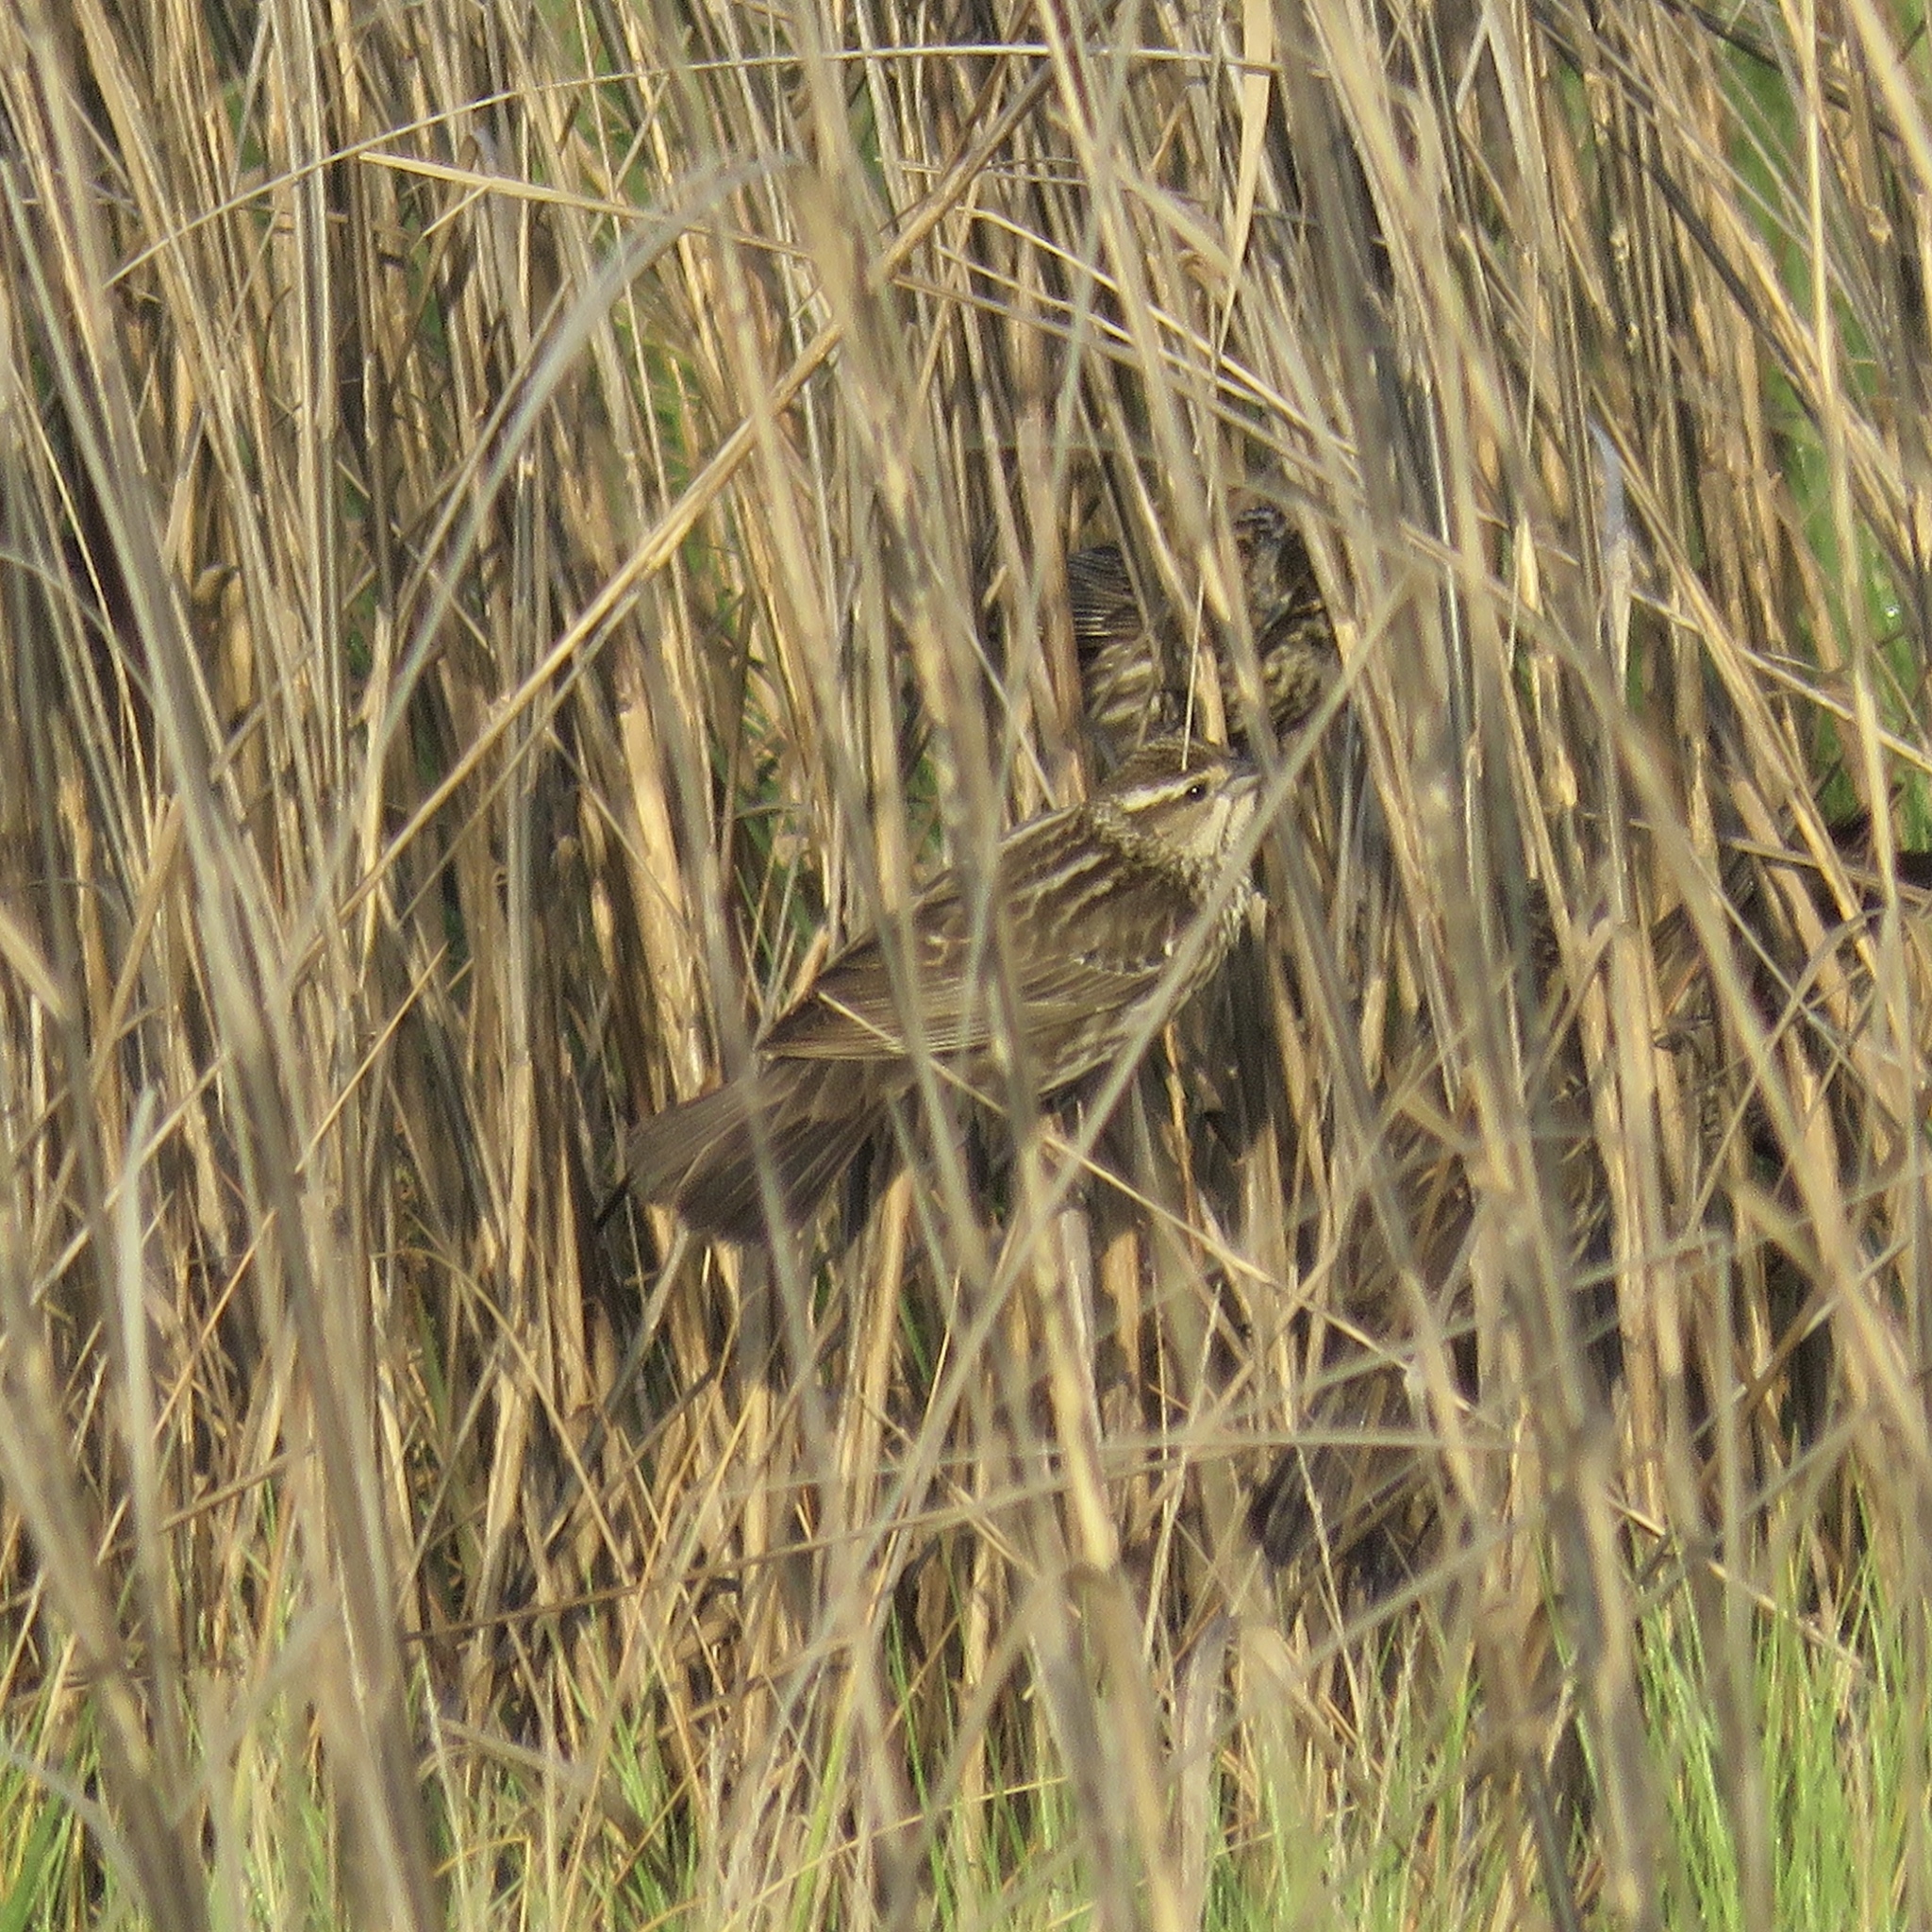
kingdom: Animalia
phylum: Chordata
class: Aves
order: Passeriformes
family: Icteridae
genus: Agelaius
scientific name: Agelaius phoeniceus
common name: Red-winged blackbird
